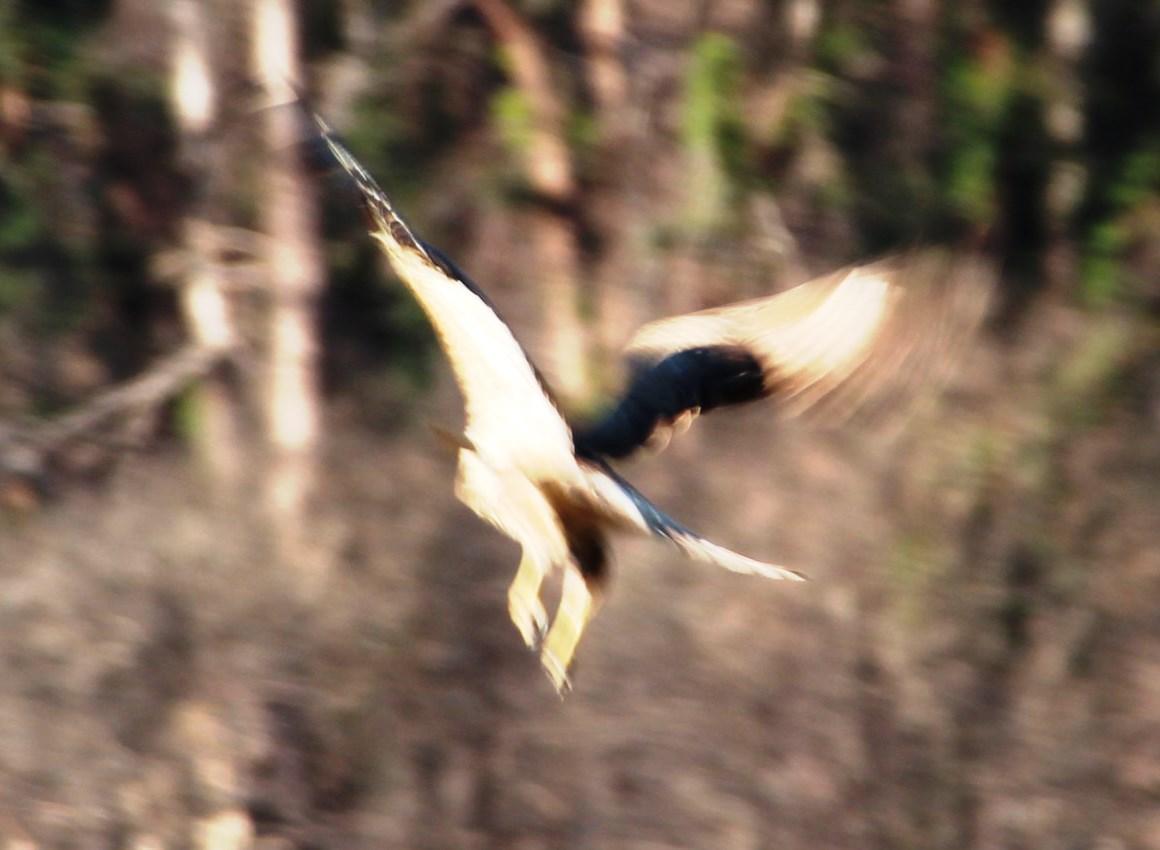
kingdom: Animalia
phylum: Chordata
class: Aves
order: Accipitriformes
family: Accipitridae
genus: Buteo
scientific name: Buteo rufofuscus
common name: Jackal buzzard
